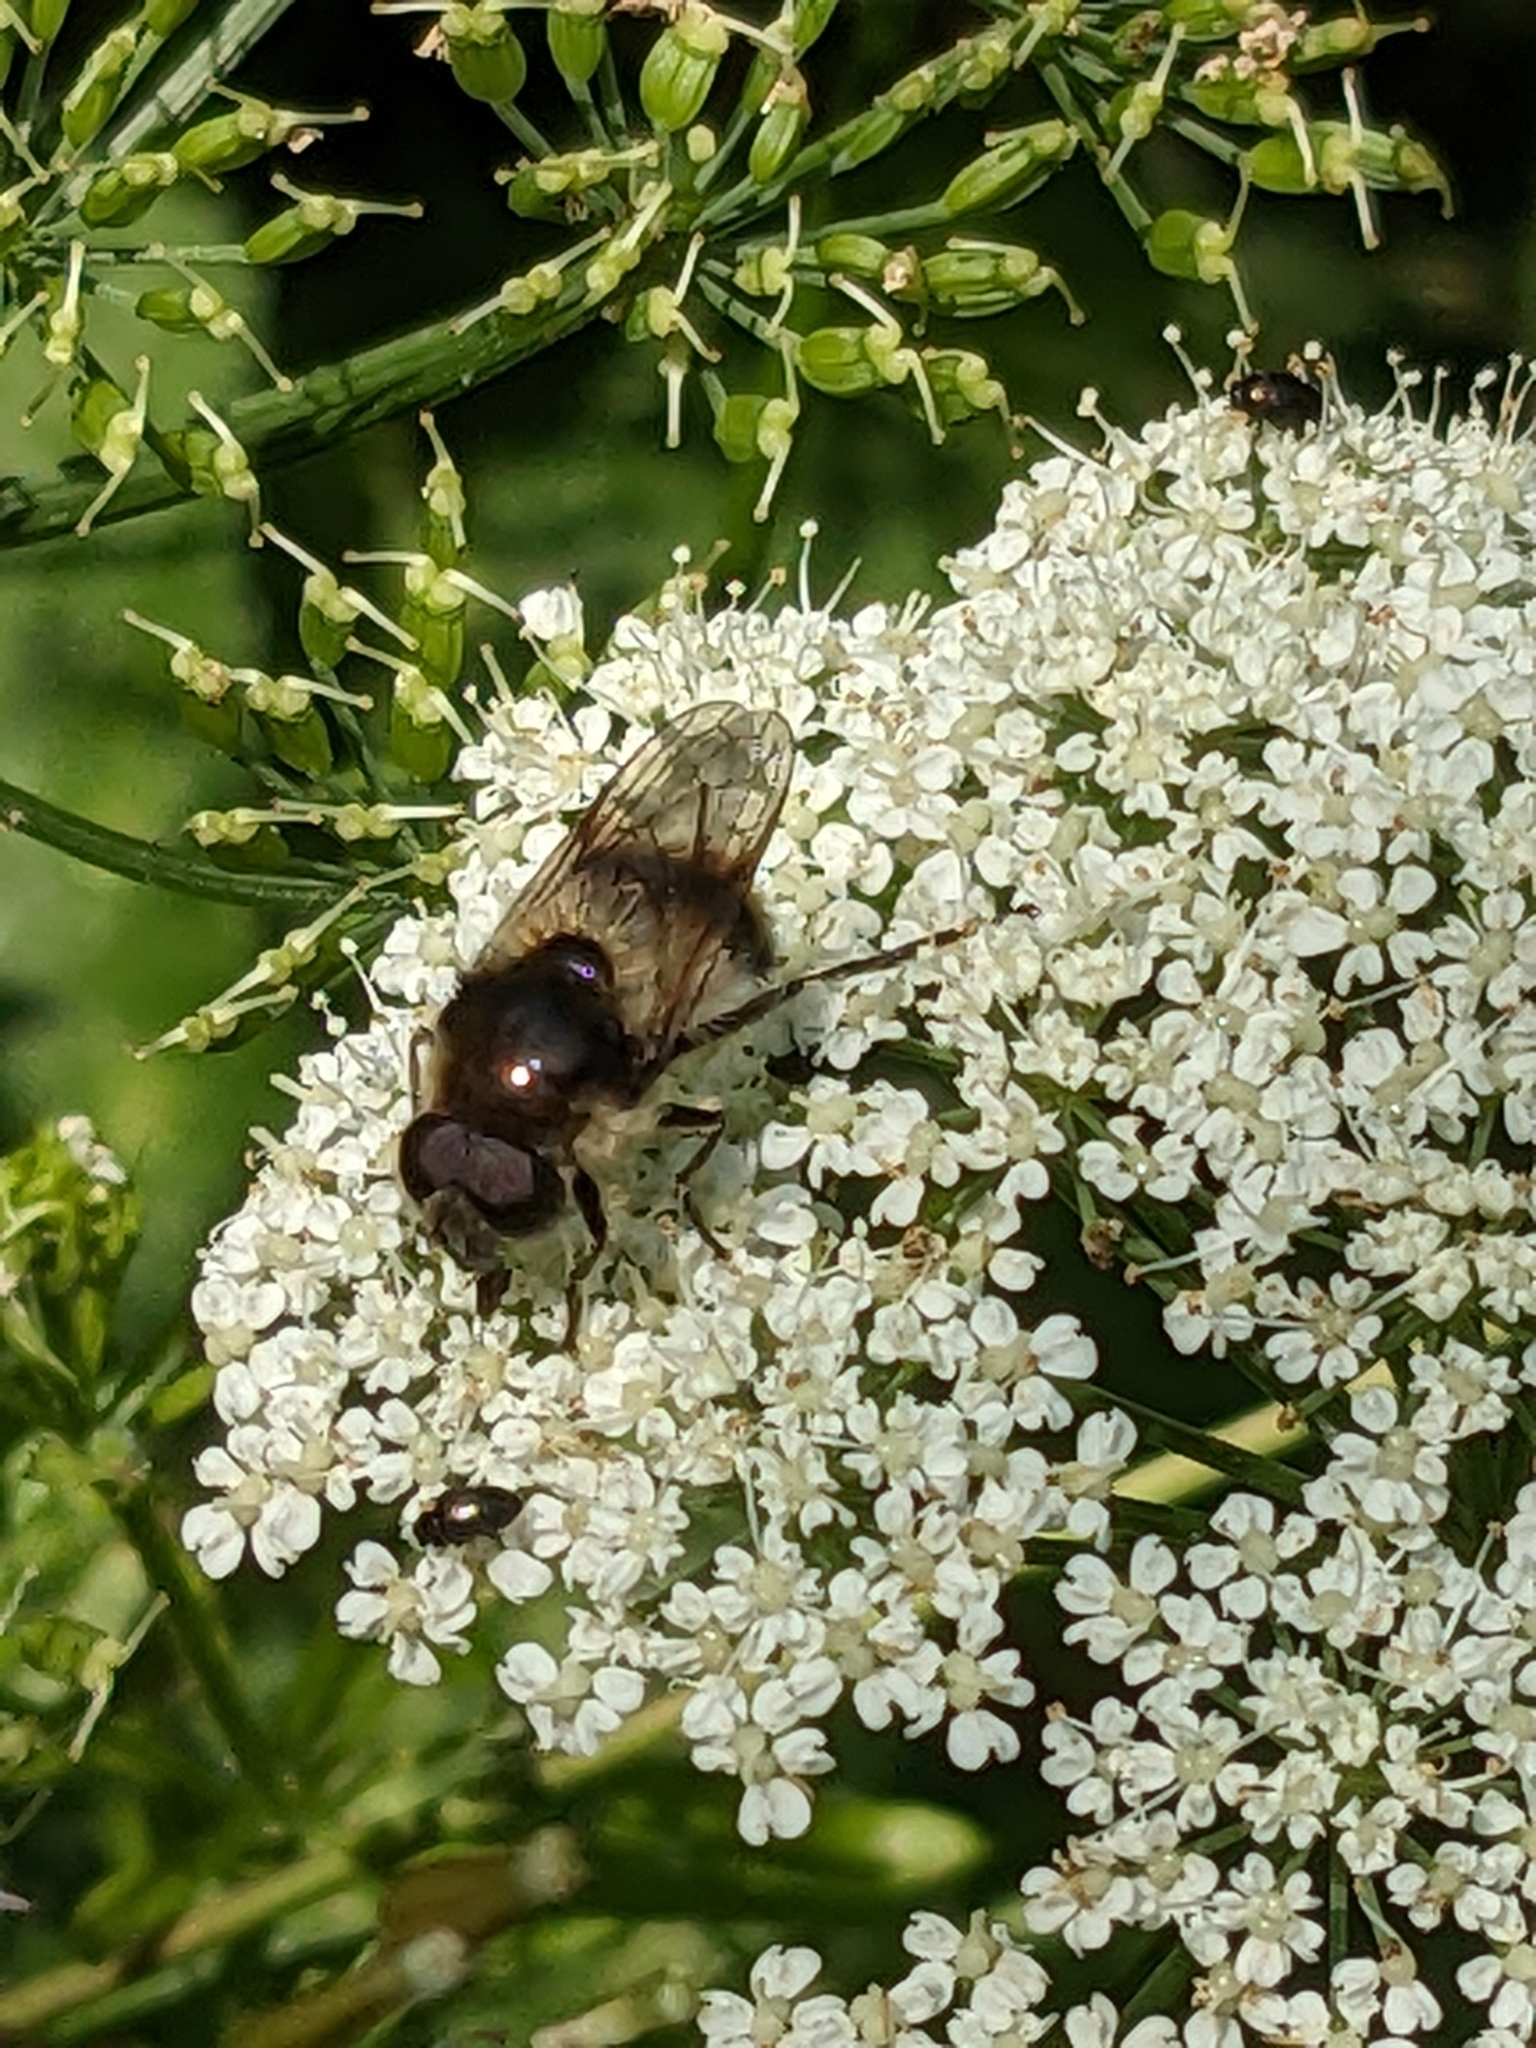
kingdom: Animalia
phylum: Arthropoda
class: Insecta
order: Diptera
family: Syrphidae
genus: Cheilosia
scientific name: Cheilosia illustrata
